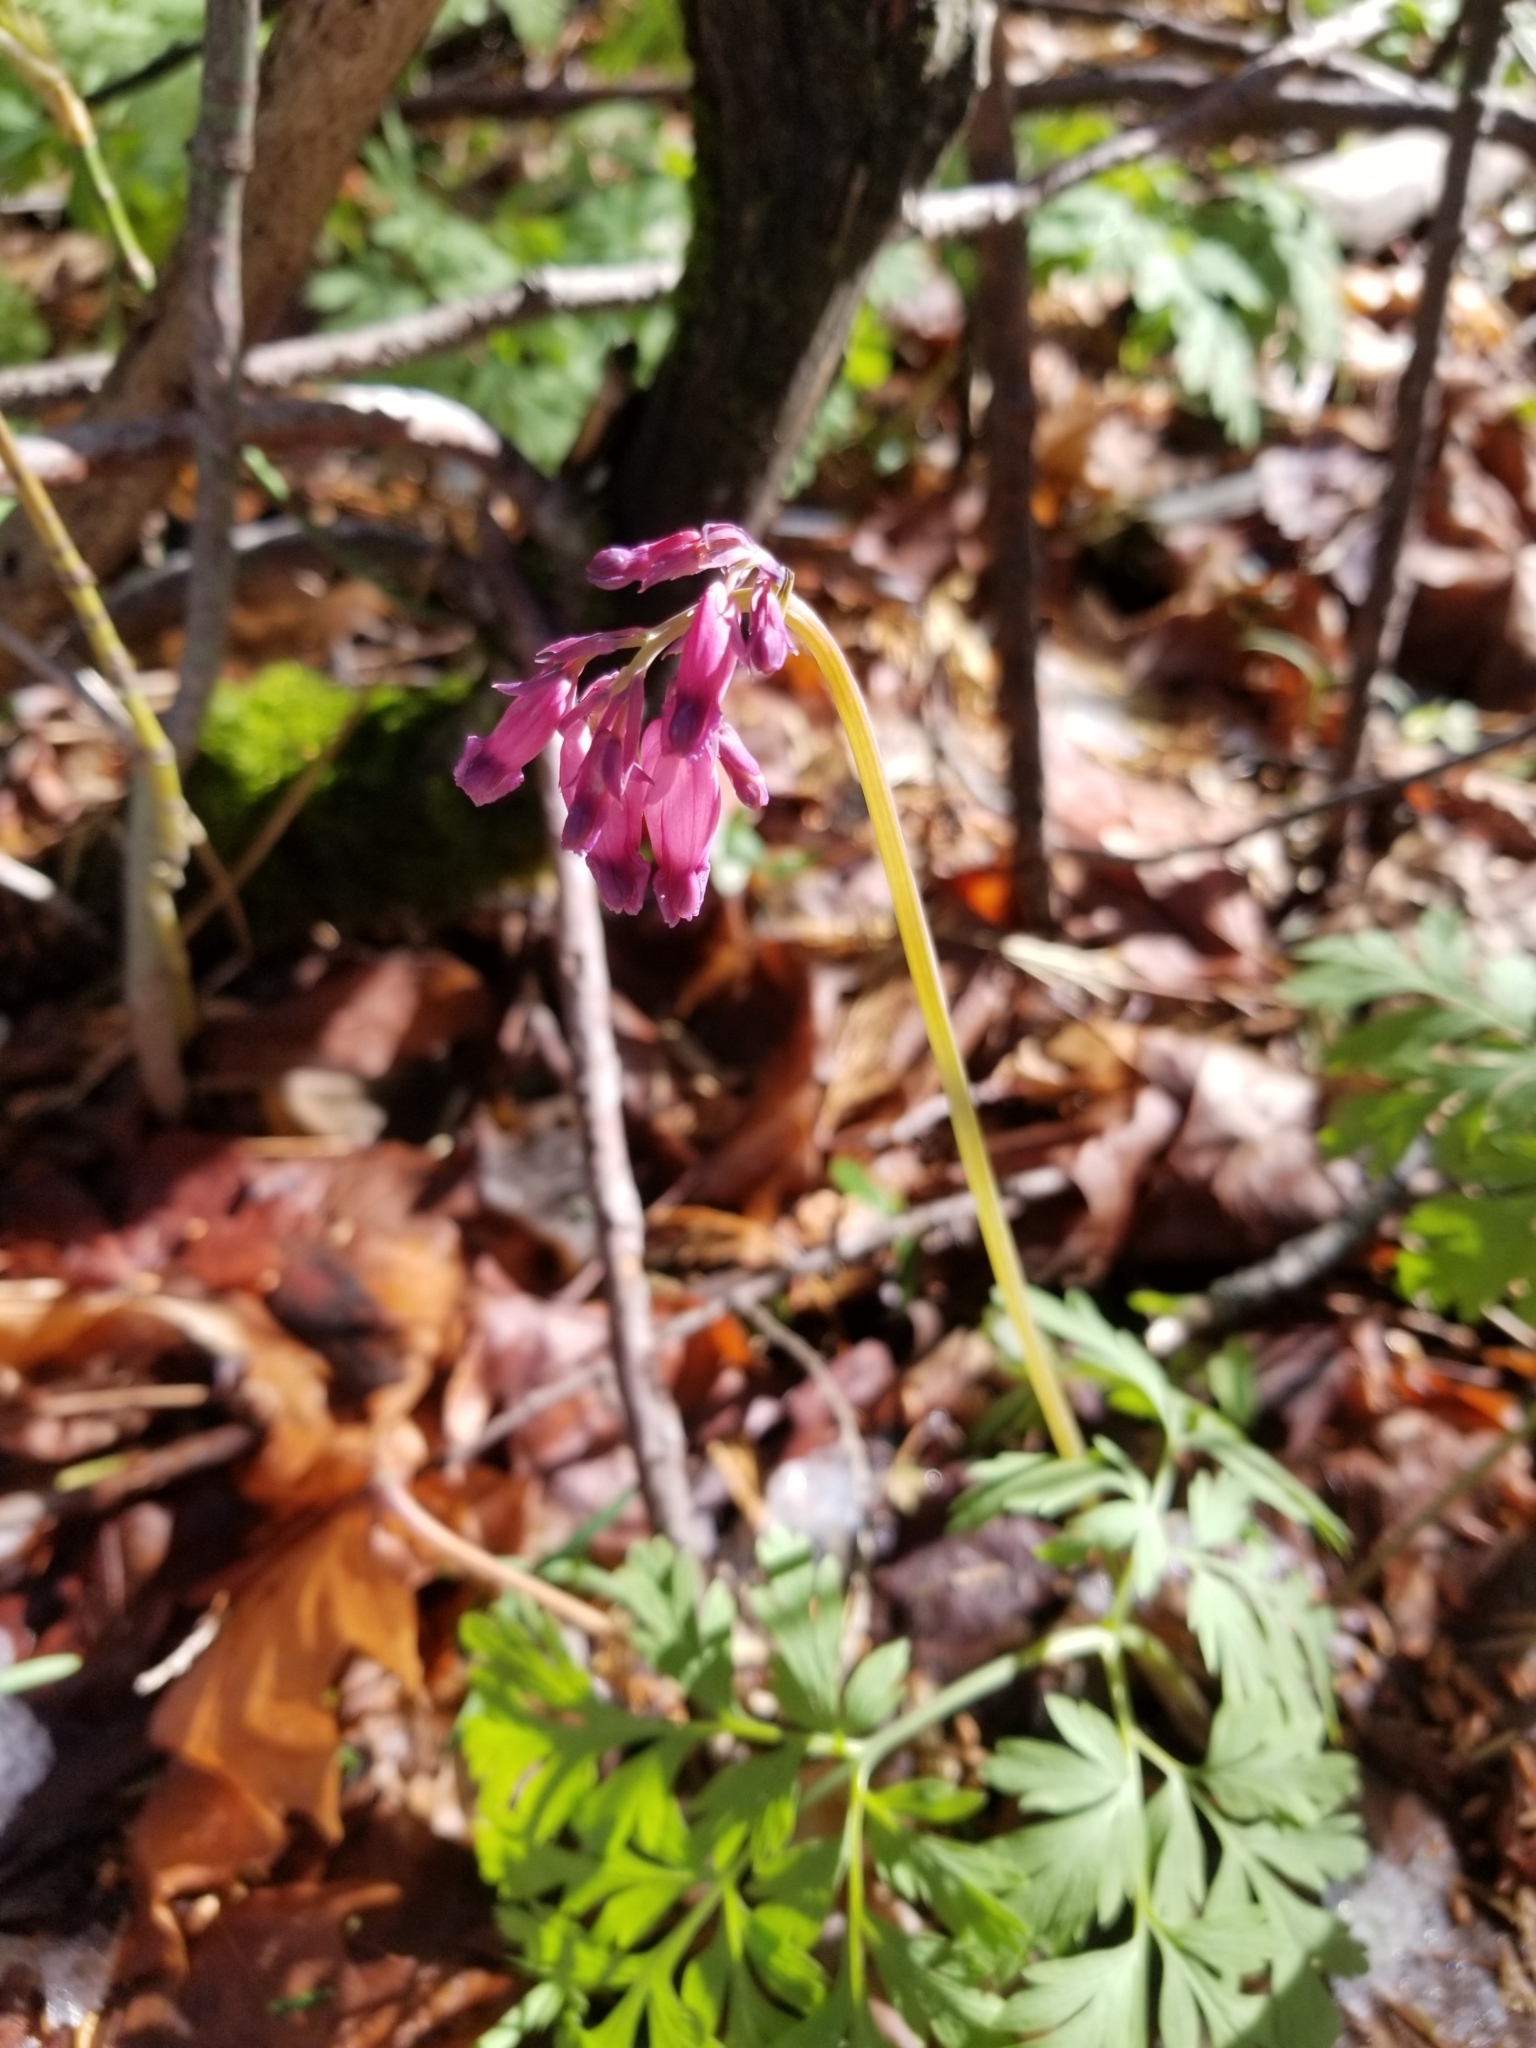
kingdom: Plantae
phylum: Tracheophyta
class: Magnoliopsida
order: Ranunculales
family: Papaveraceae
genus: Dicentra
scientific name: Dicentra formosa
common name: Bleeding-heart
